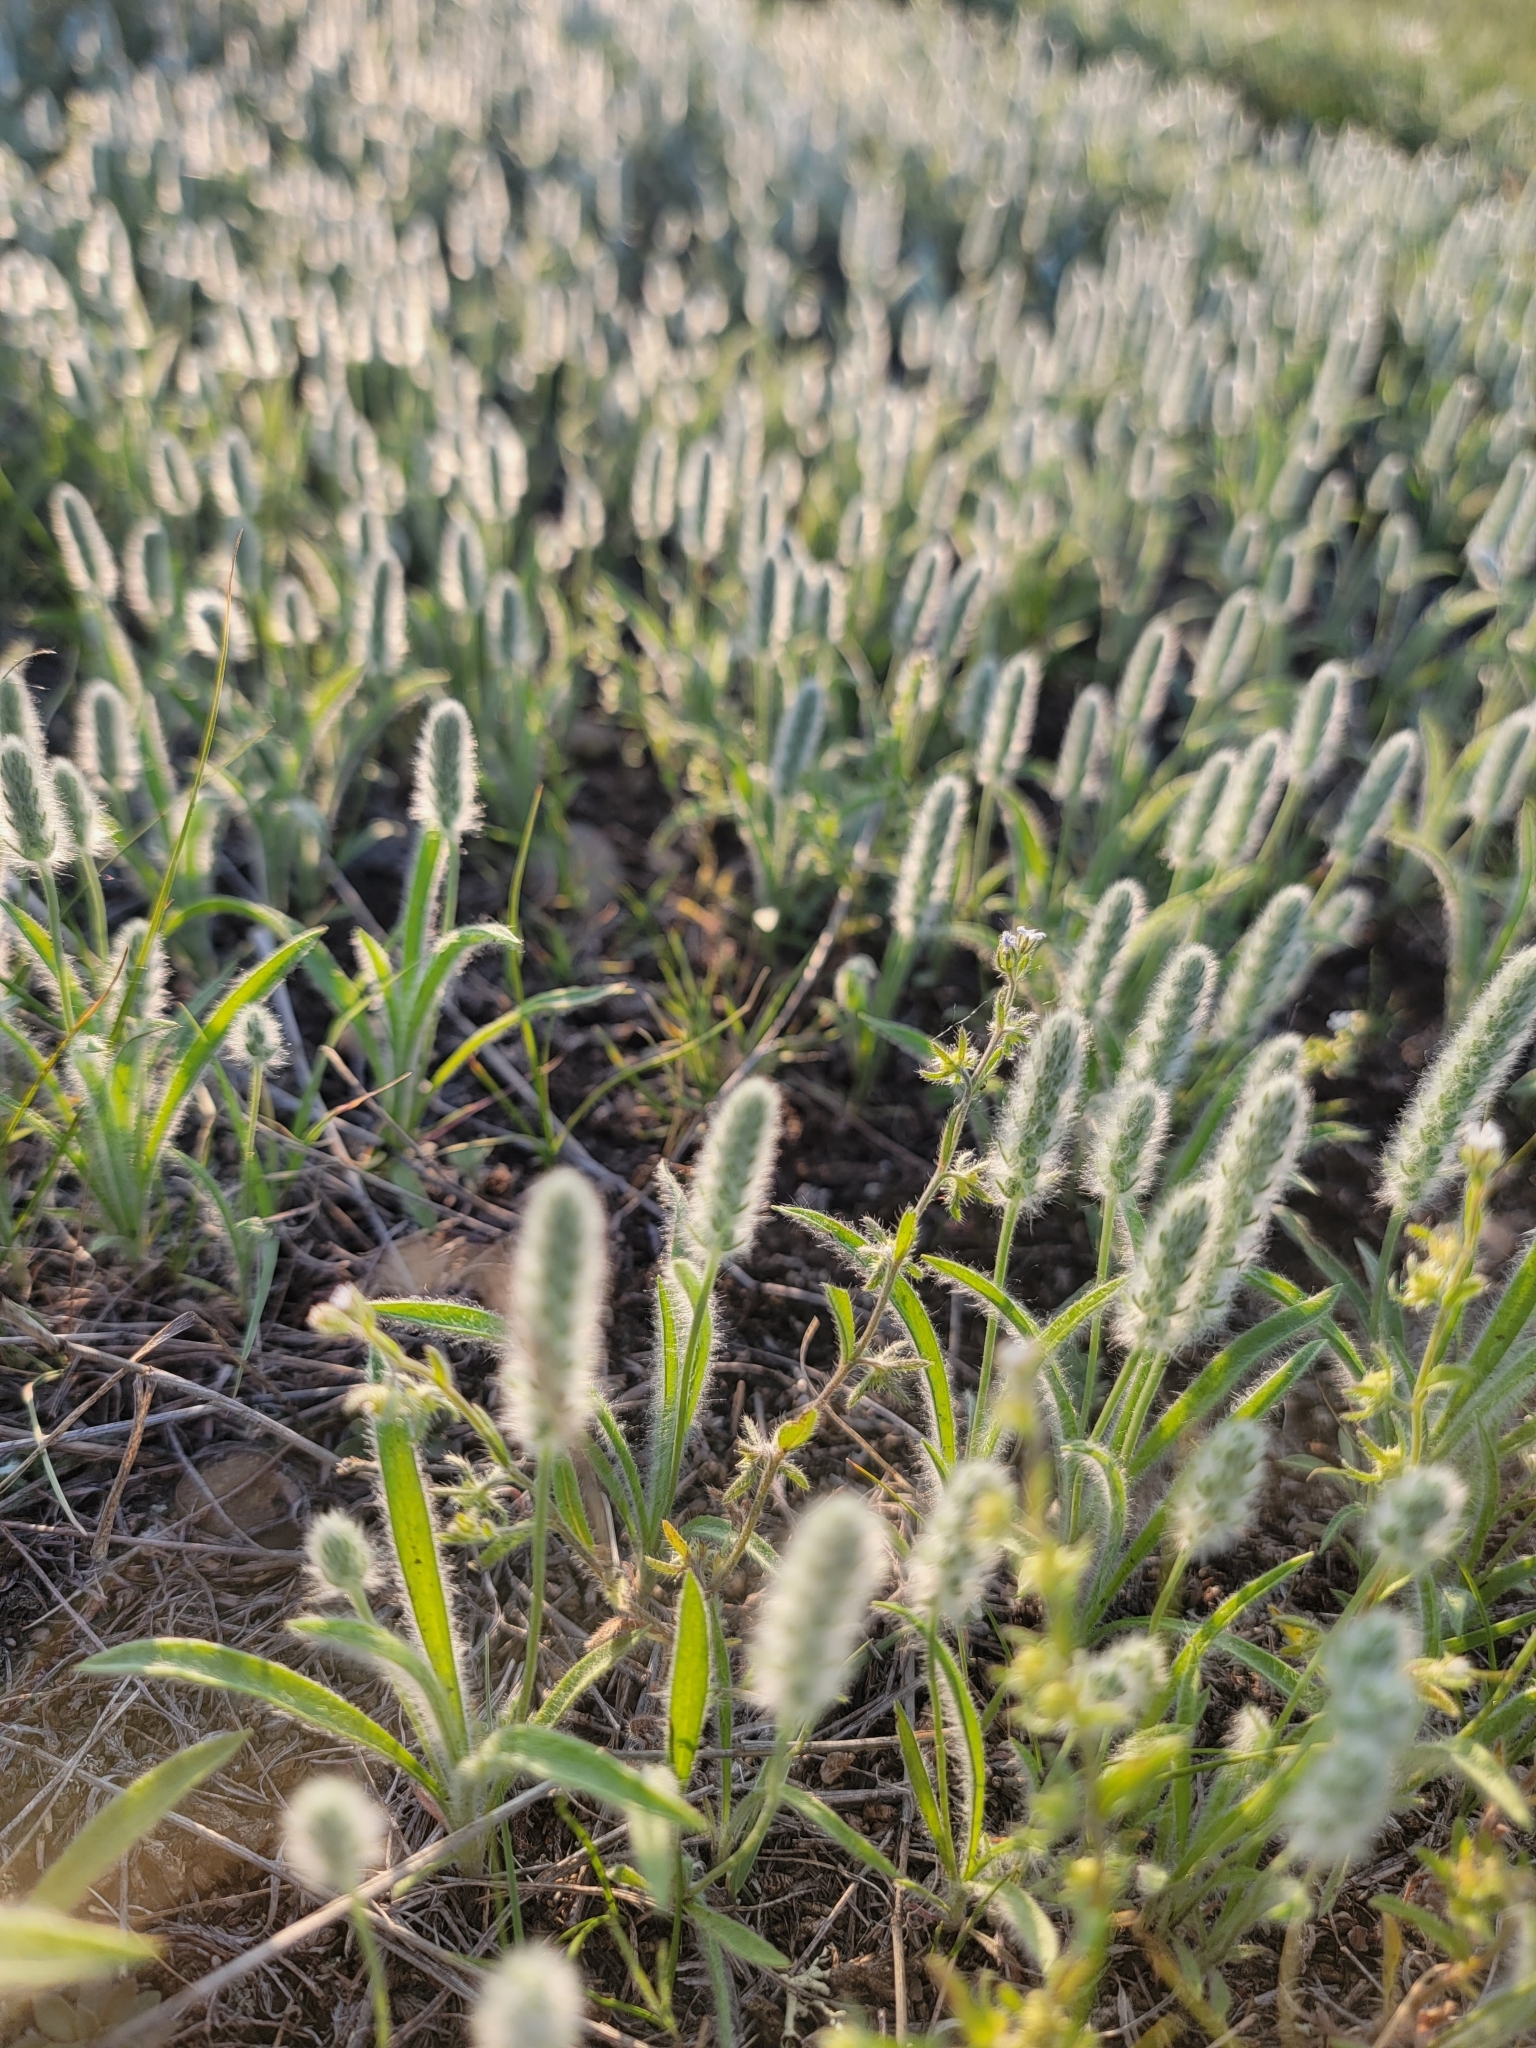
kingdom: Plantae
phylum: Tracheophyta
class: Magnoliopsida
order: Lamiales
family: Plantaginaceae
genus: Plantago
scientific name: Plantago patagonica
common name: Patagonia indian-wheat
